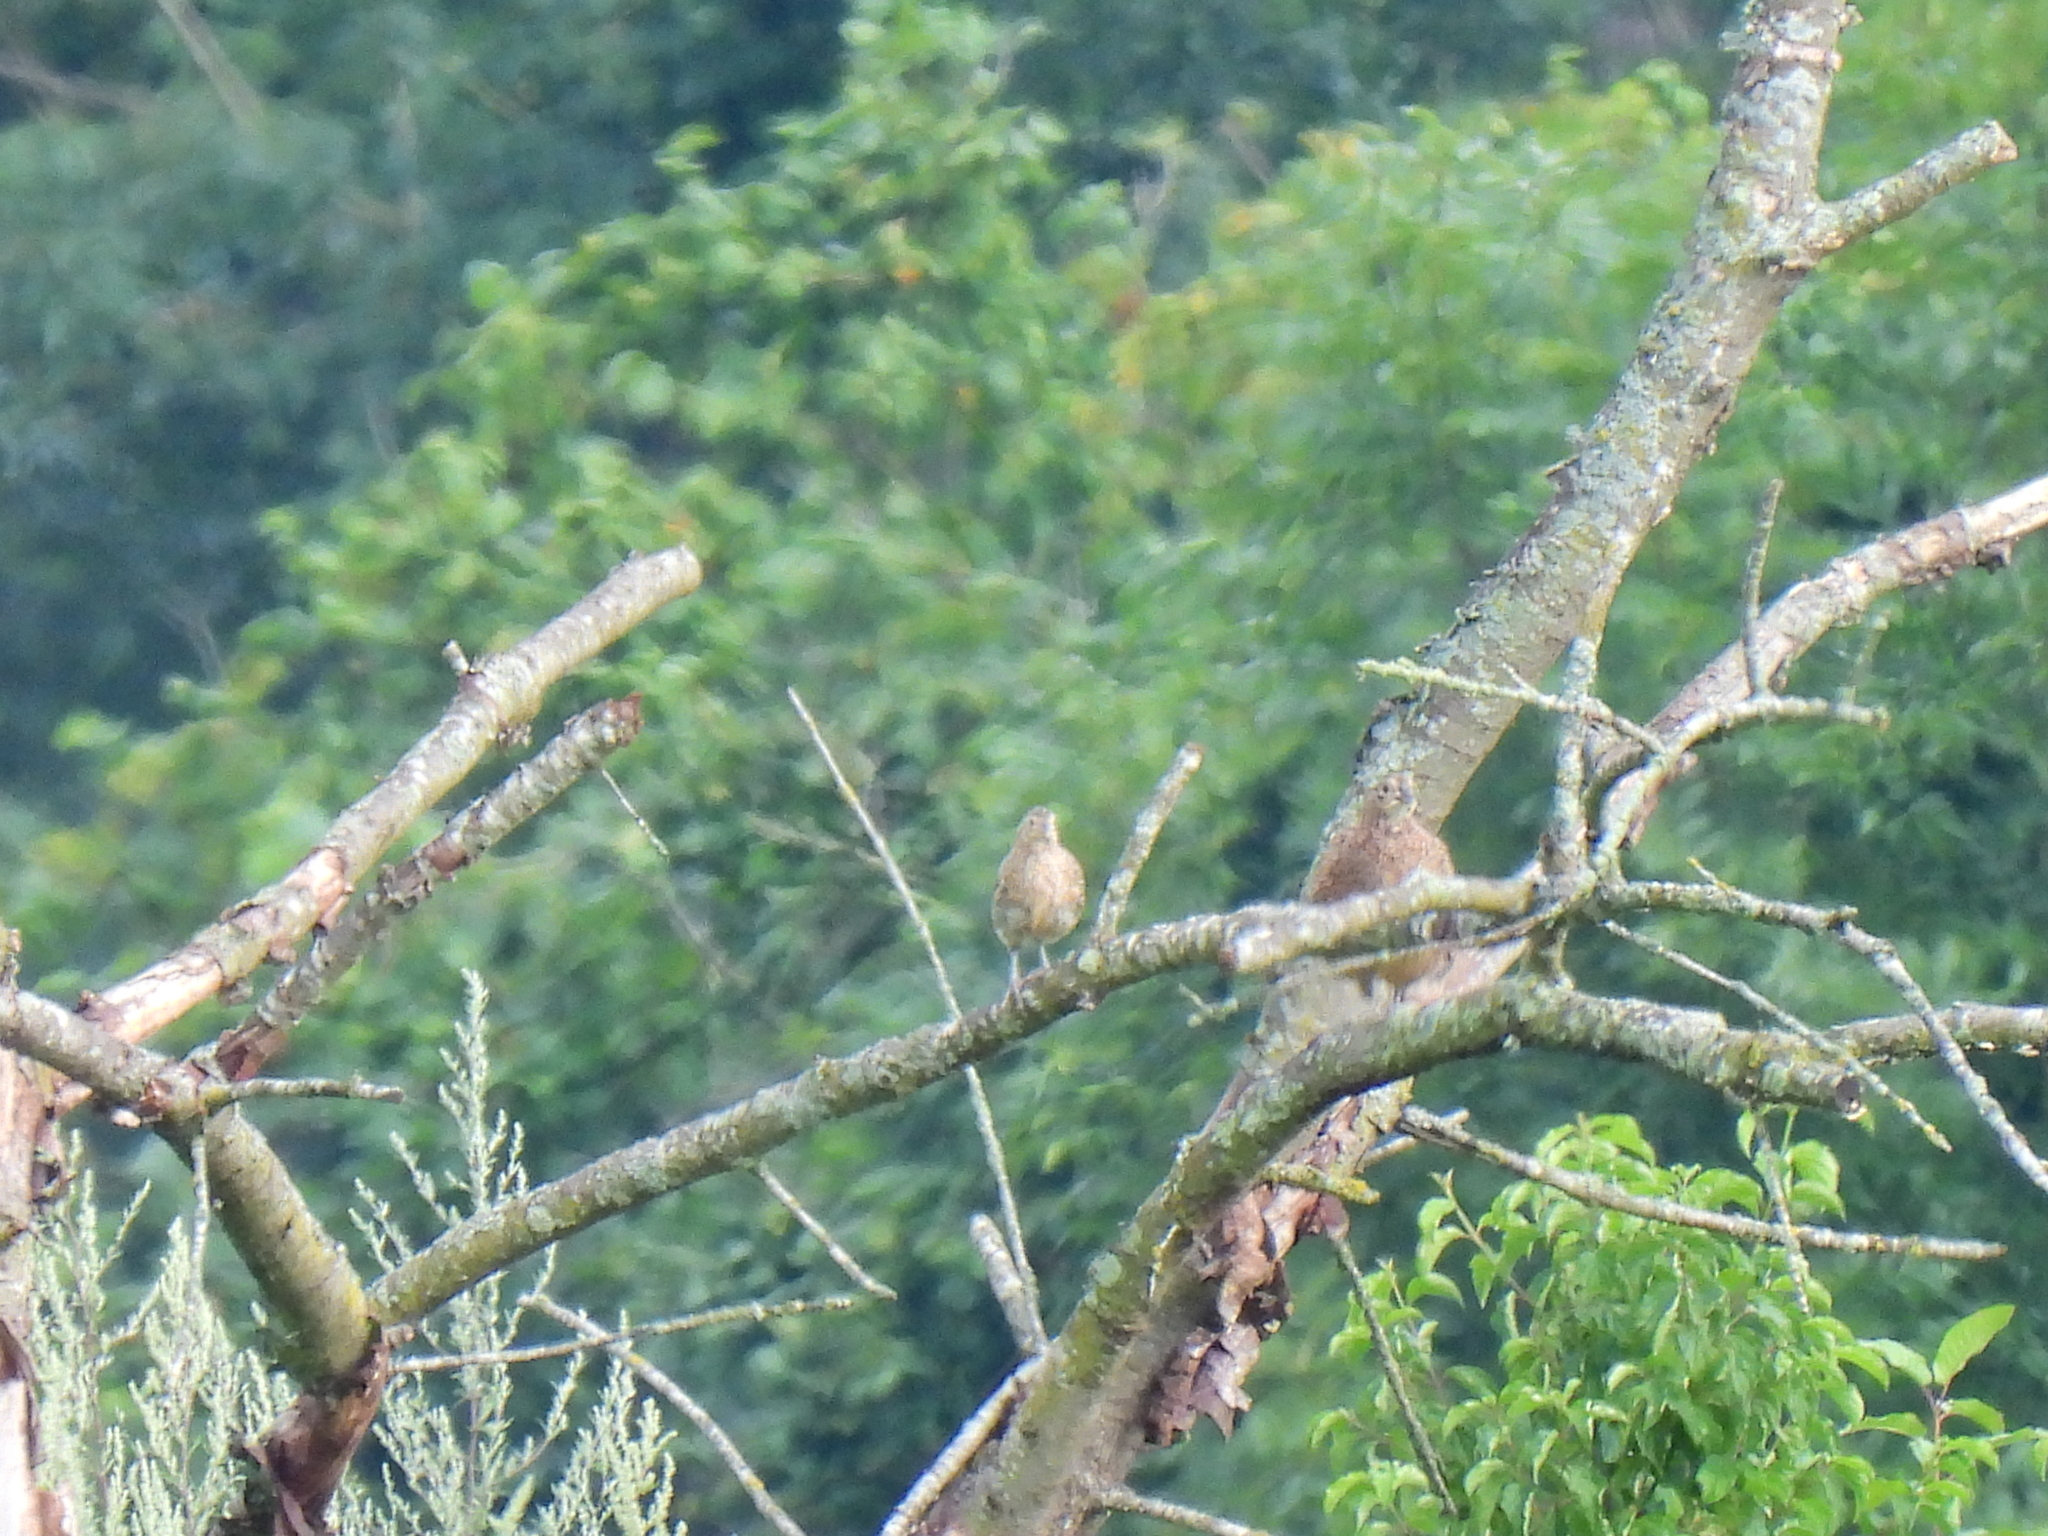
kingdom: Animalia
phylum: Chordata
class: Aves
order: Galliformes
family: Phasianidae
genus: Phasianus
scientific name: Phasianus colchicus
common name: Common pheasant
